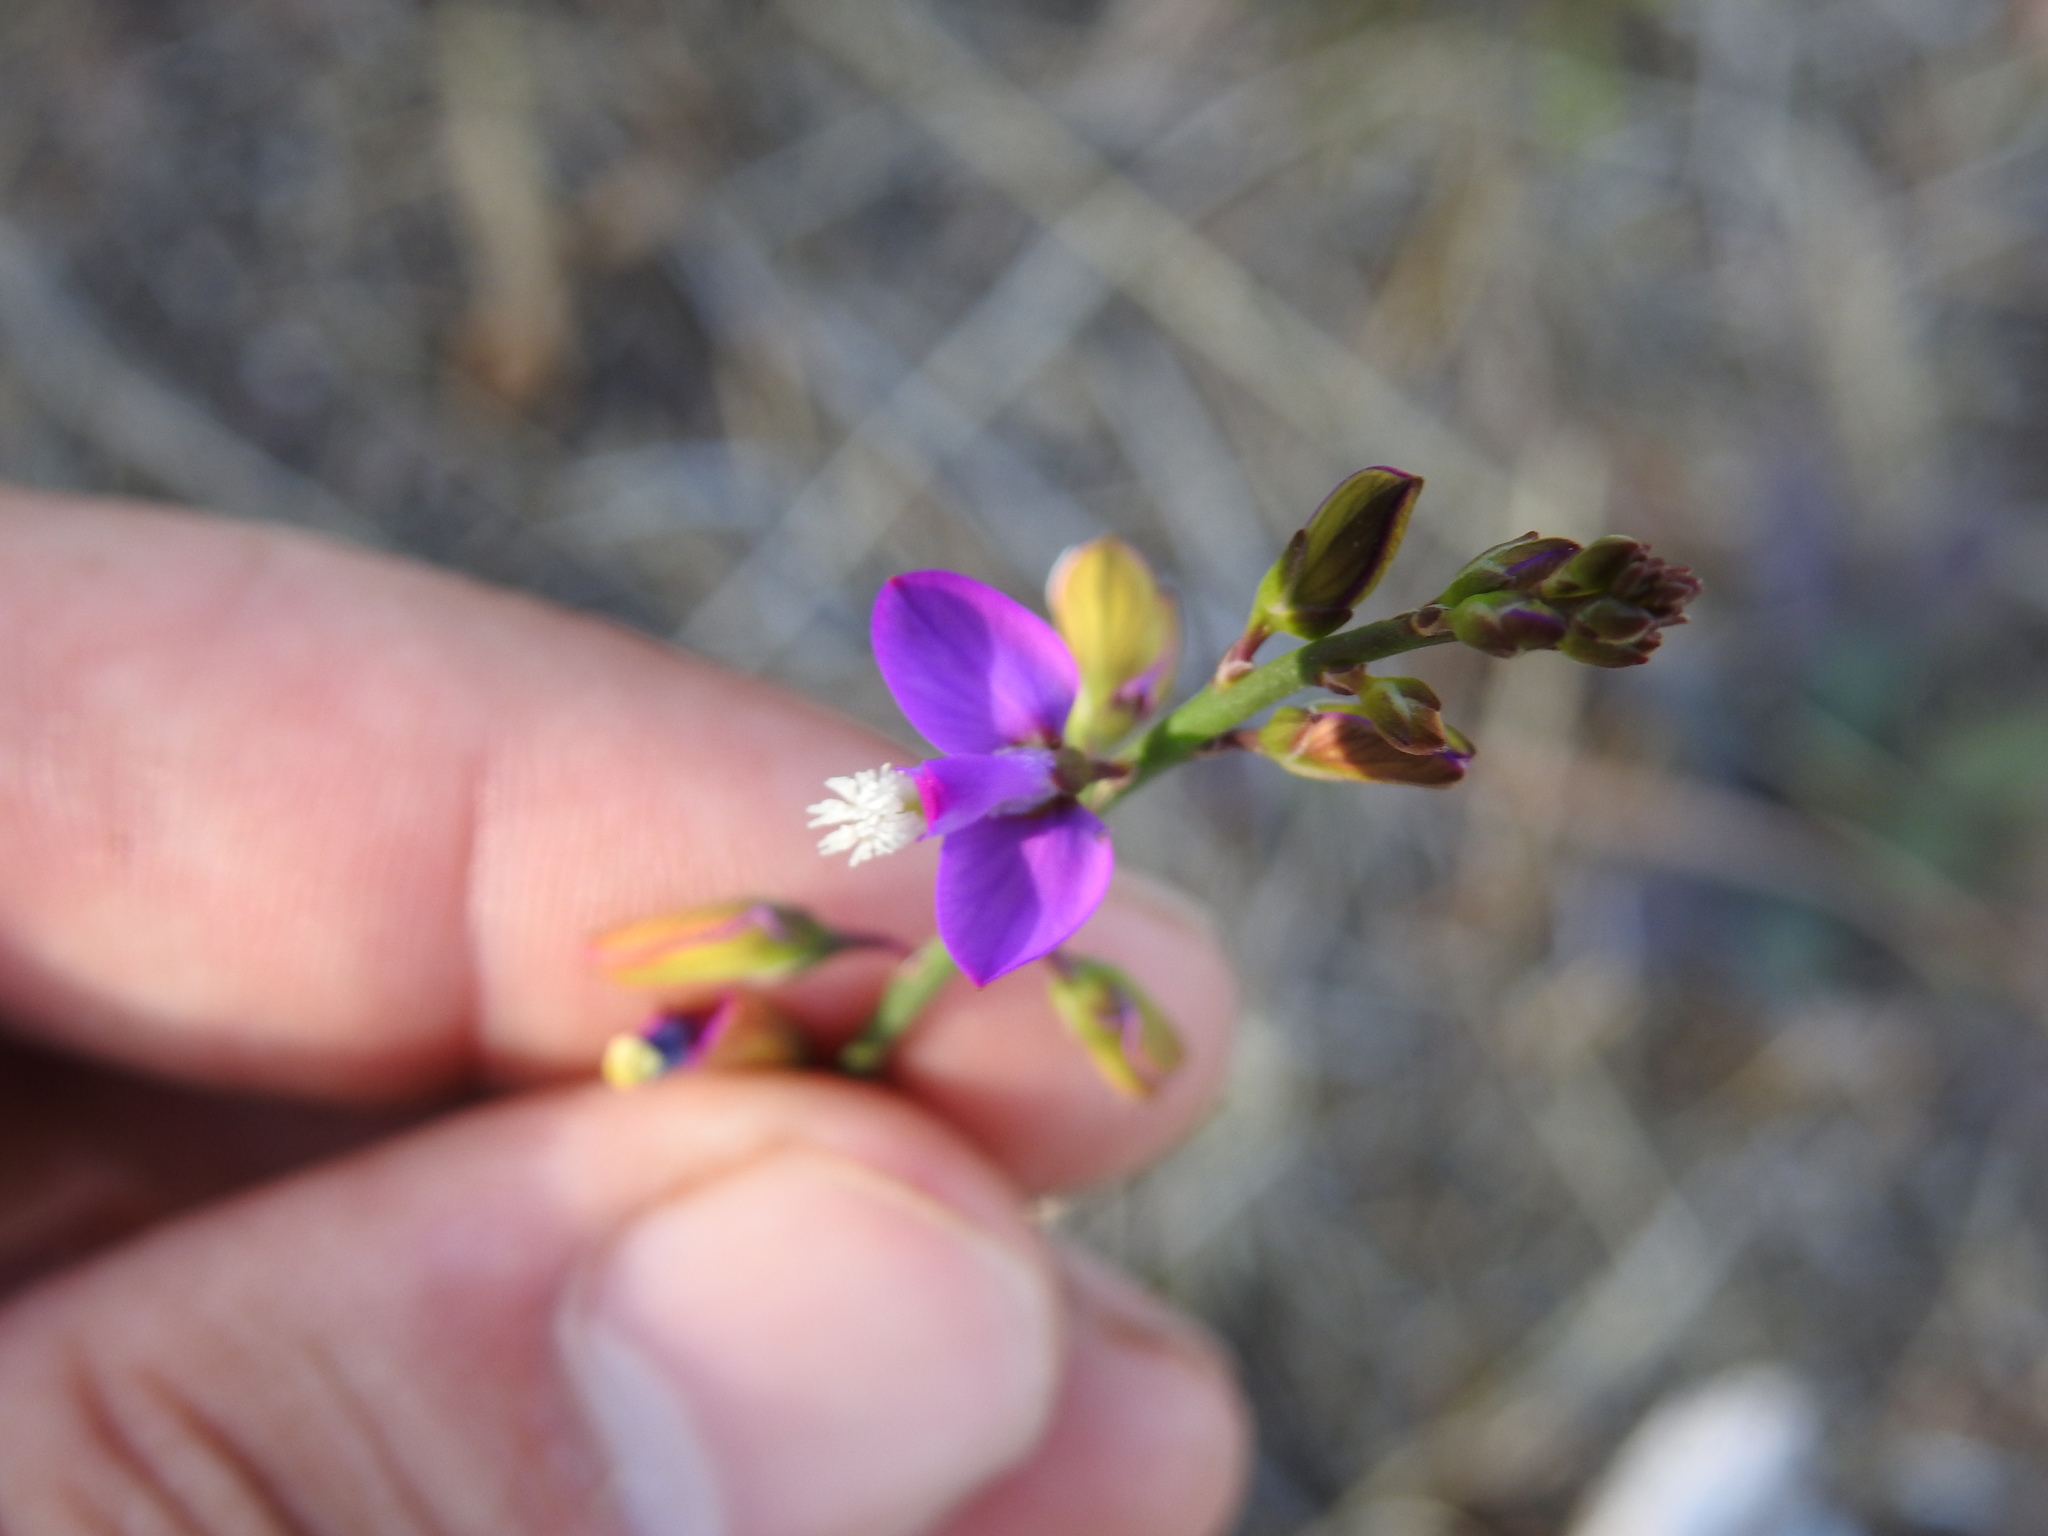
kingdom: Plantae
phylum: Tracheophyta
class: Magnoliopsida
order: Fabales
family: Polygalaceae
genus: Polygala
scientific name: Polygala garcini
